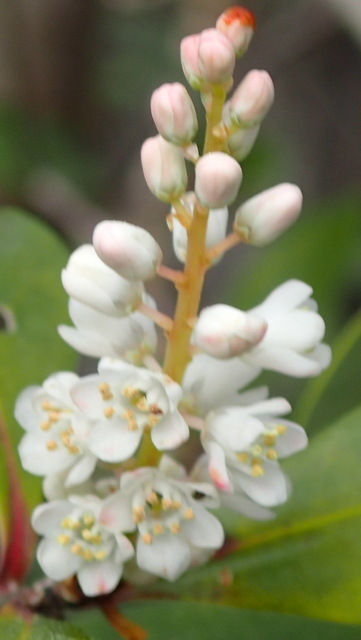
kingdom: Plantae
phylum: Tracheophyta
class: Magnoliopsida
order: Ericales
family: Cyrillaceae
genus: Cliftonia
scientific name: Cliftonia monophylla
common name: Titi
